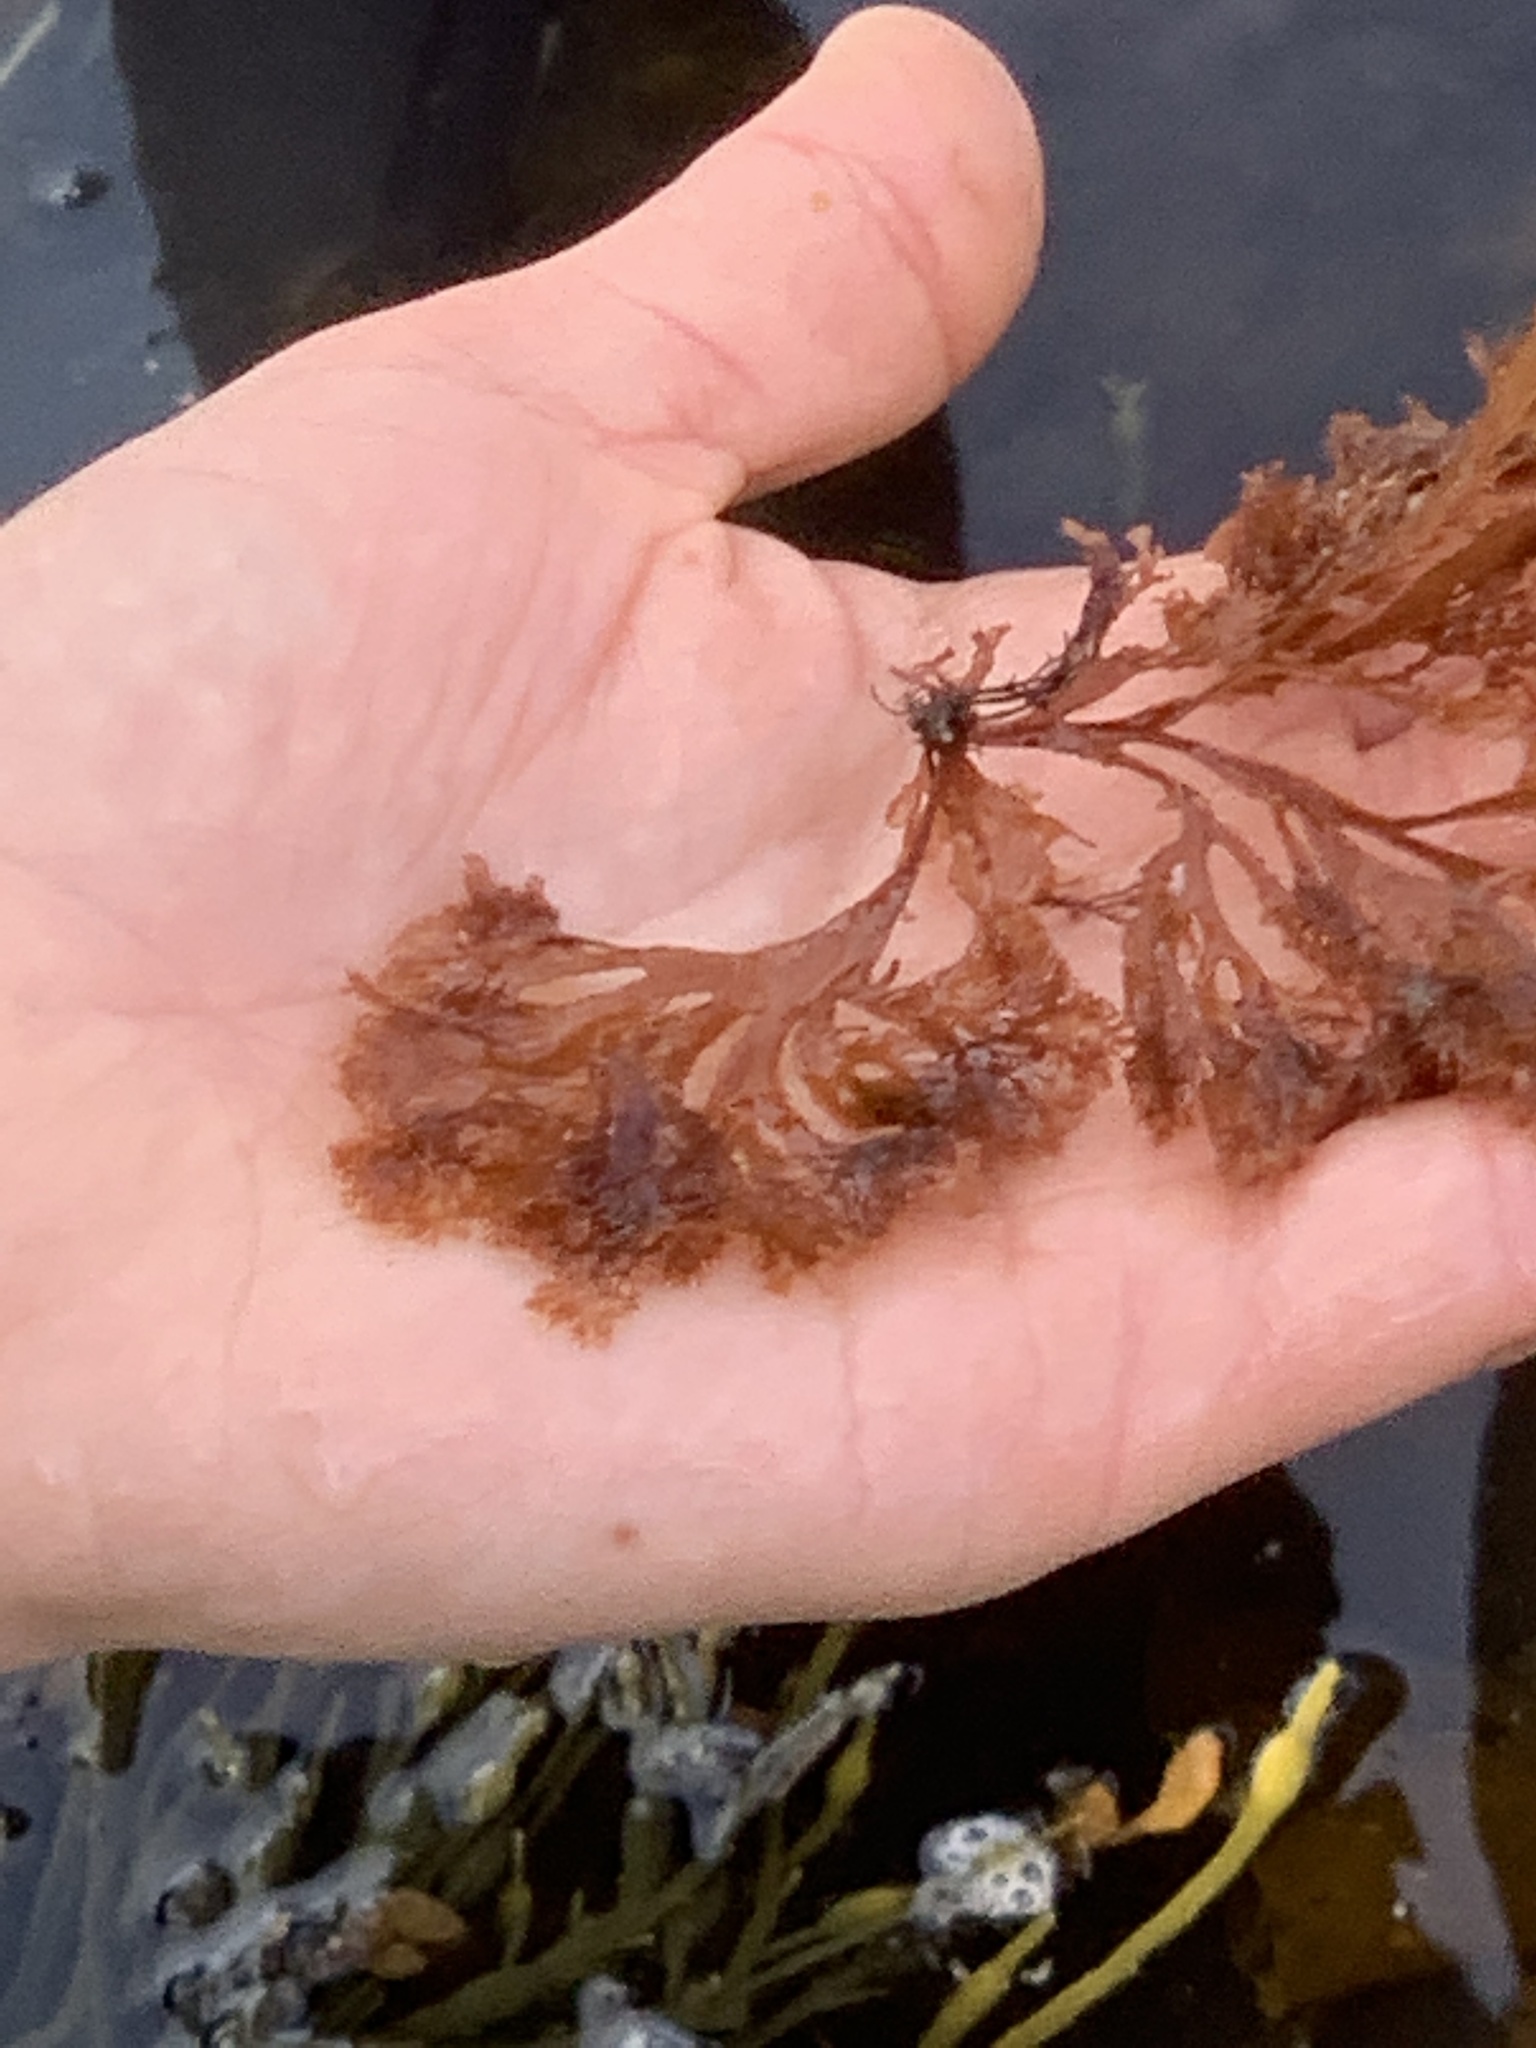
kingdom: Plantae
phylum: Rhodophyta
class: Florideophyceae
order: Gigartinales
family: Kallymeniaceae
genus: Euthora
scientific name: Euthora cristata
